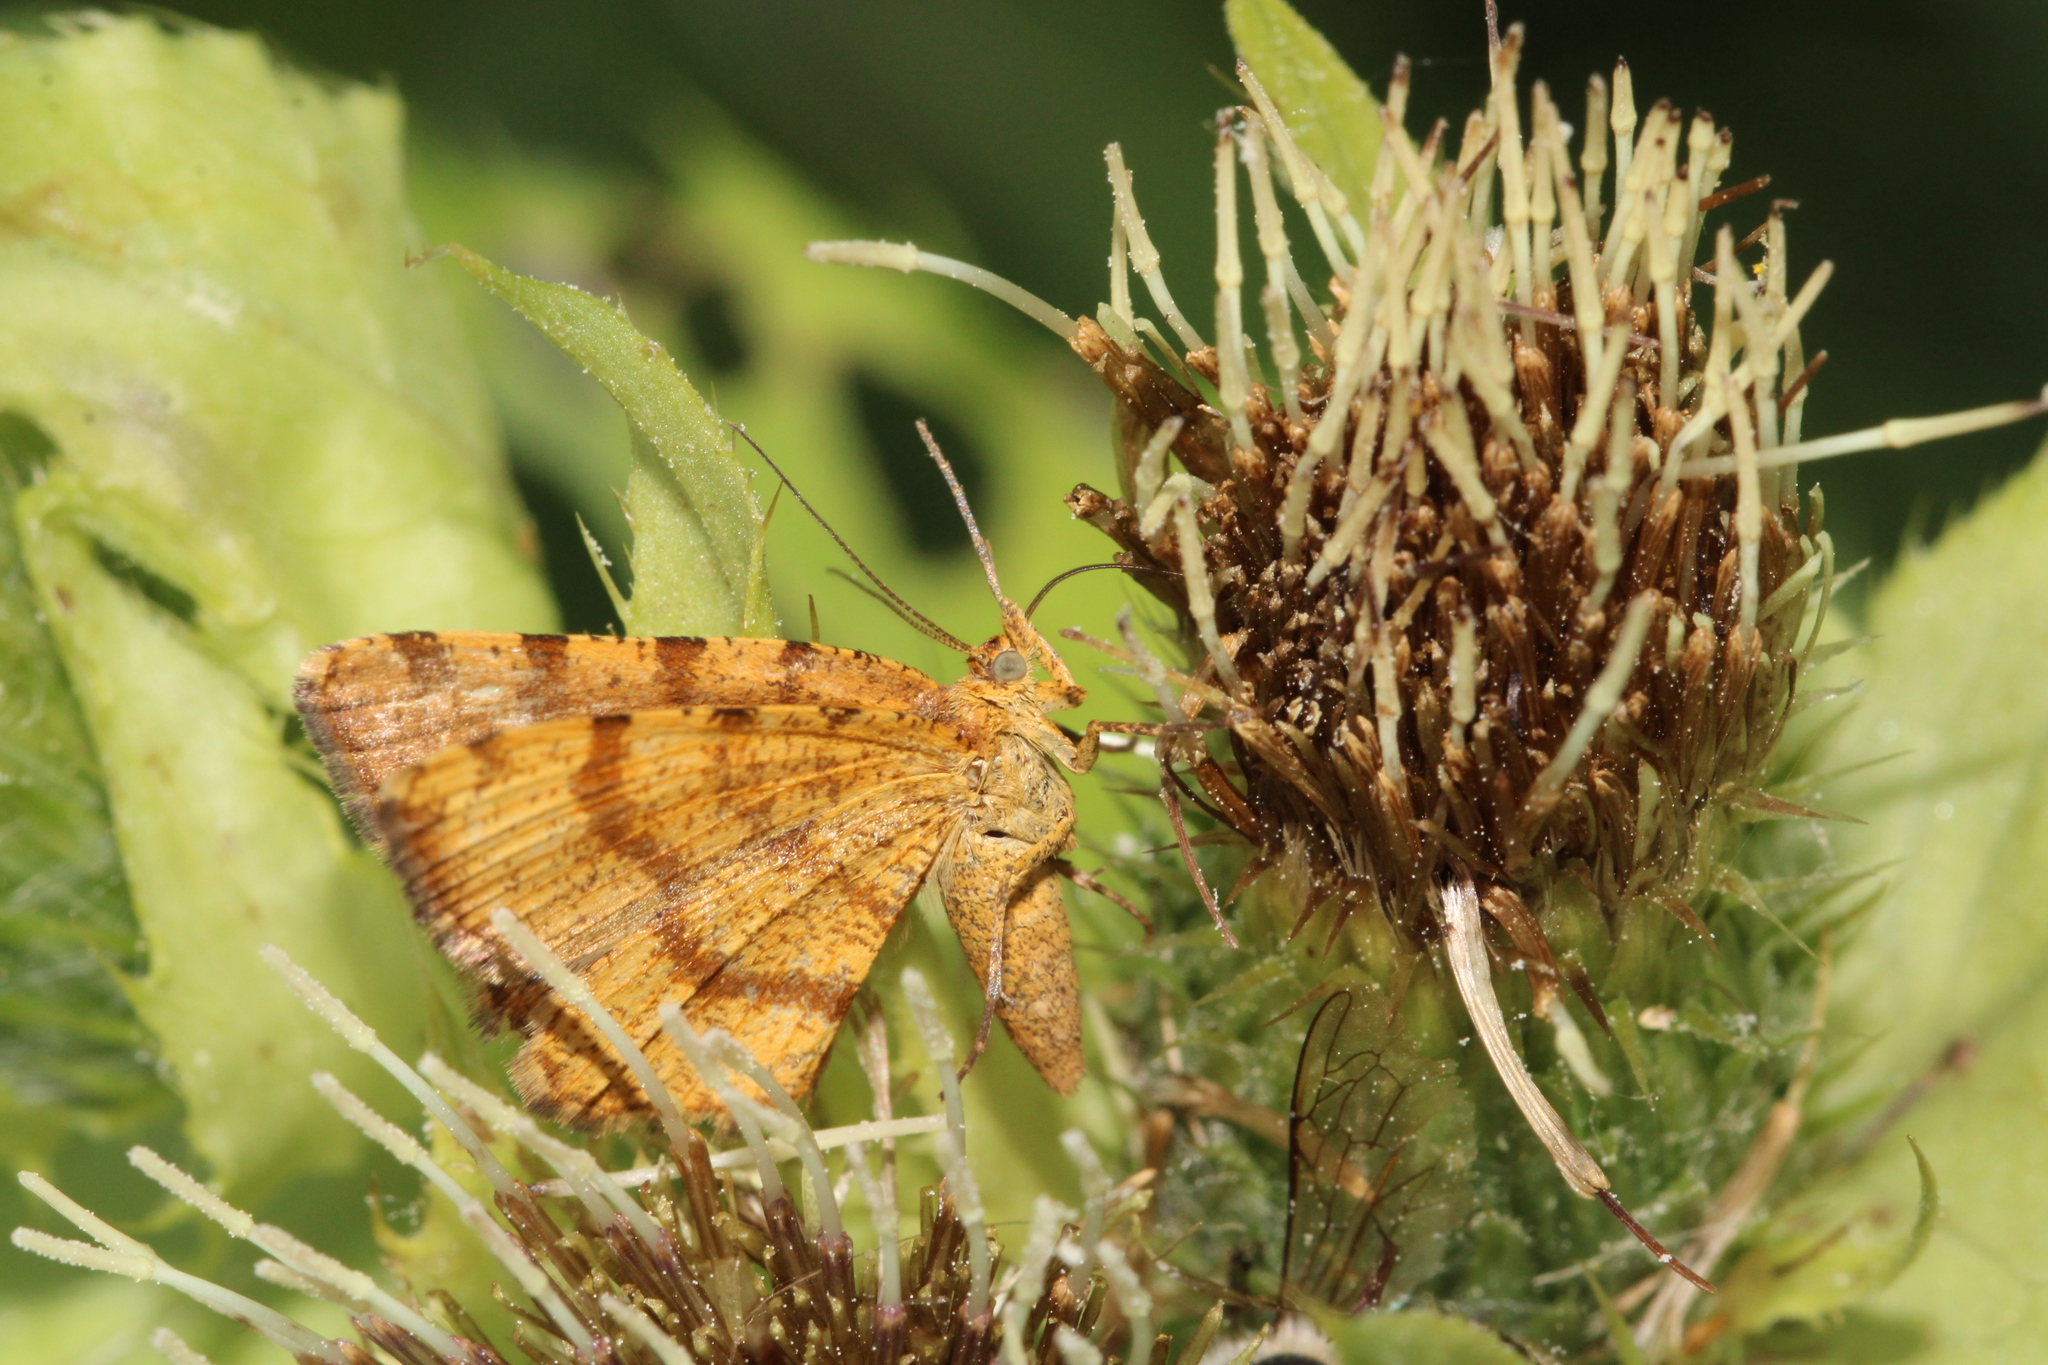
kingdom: Animalia
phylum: Arthropoda
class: Insecta
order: Lepidoptera
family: Geometridae
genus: Macaria
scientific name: Macaria brunneata
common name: Rannoch looper
